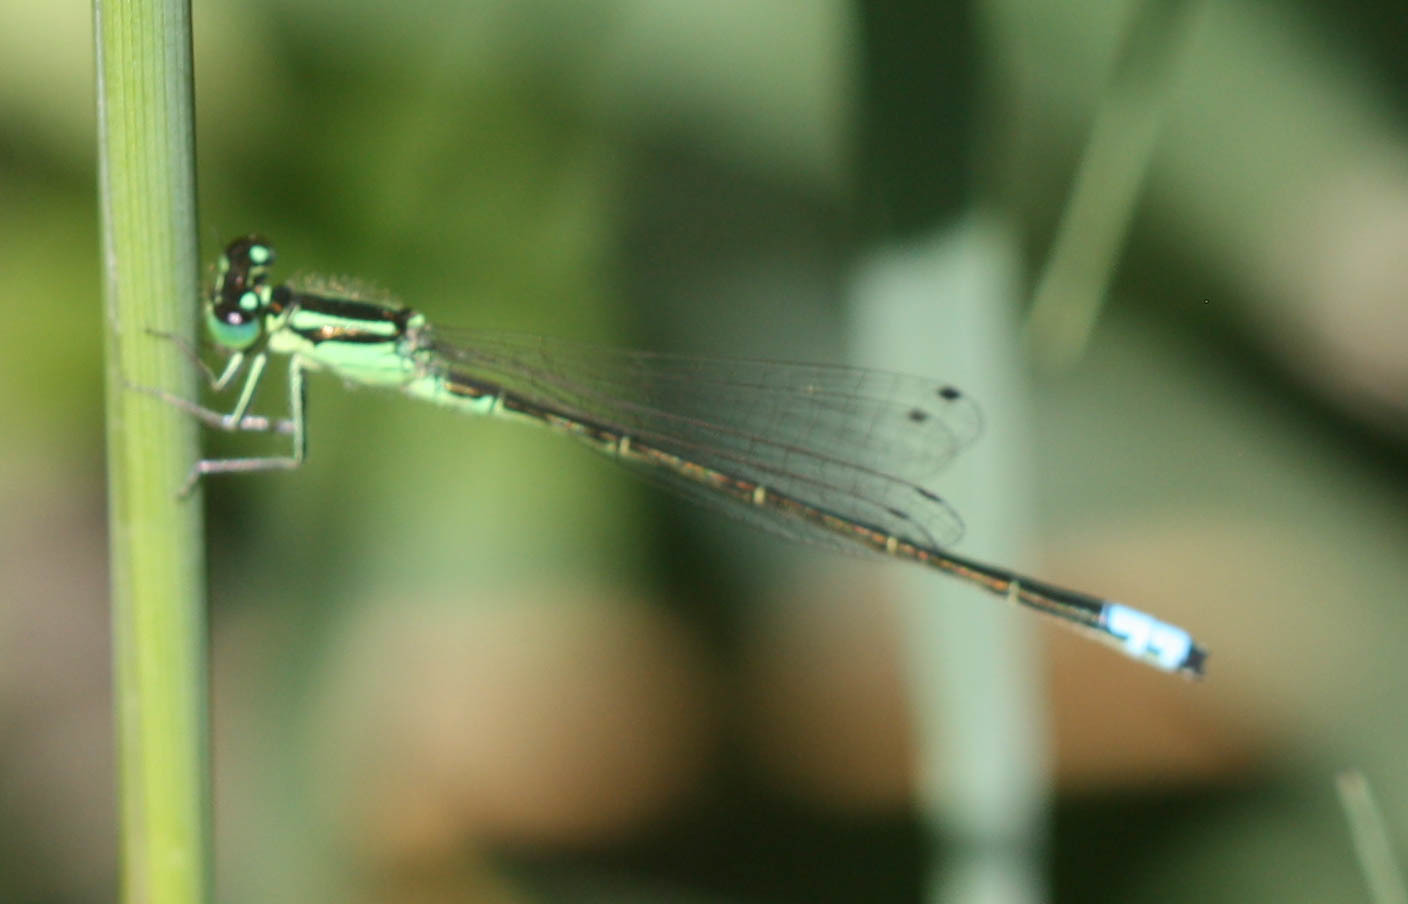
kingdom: Animalia
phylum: Arthropoda
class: Insecta
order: Odonata
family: Coenagrionidae
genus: Ischnura
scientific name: Ischnura verticalis
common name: Eastern forktail
